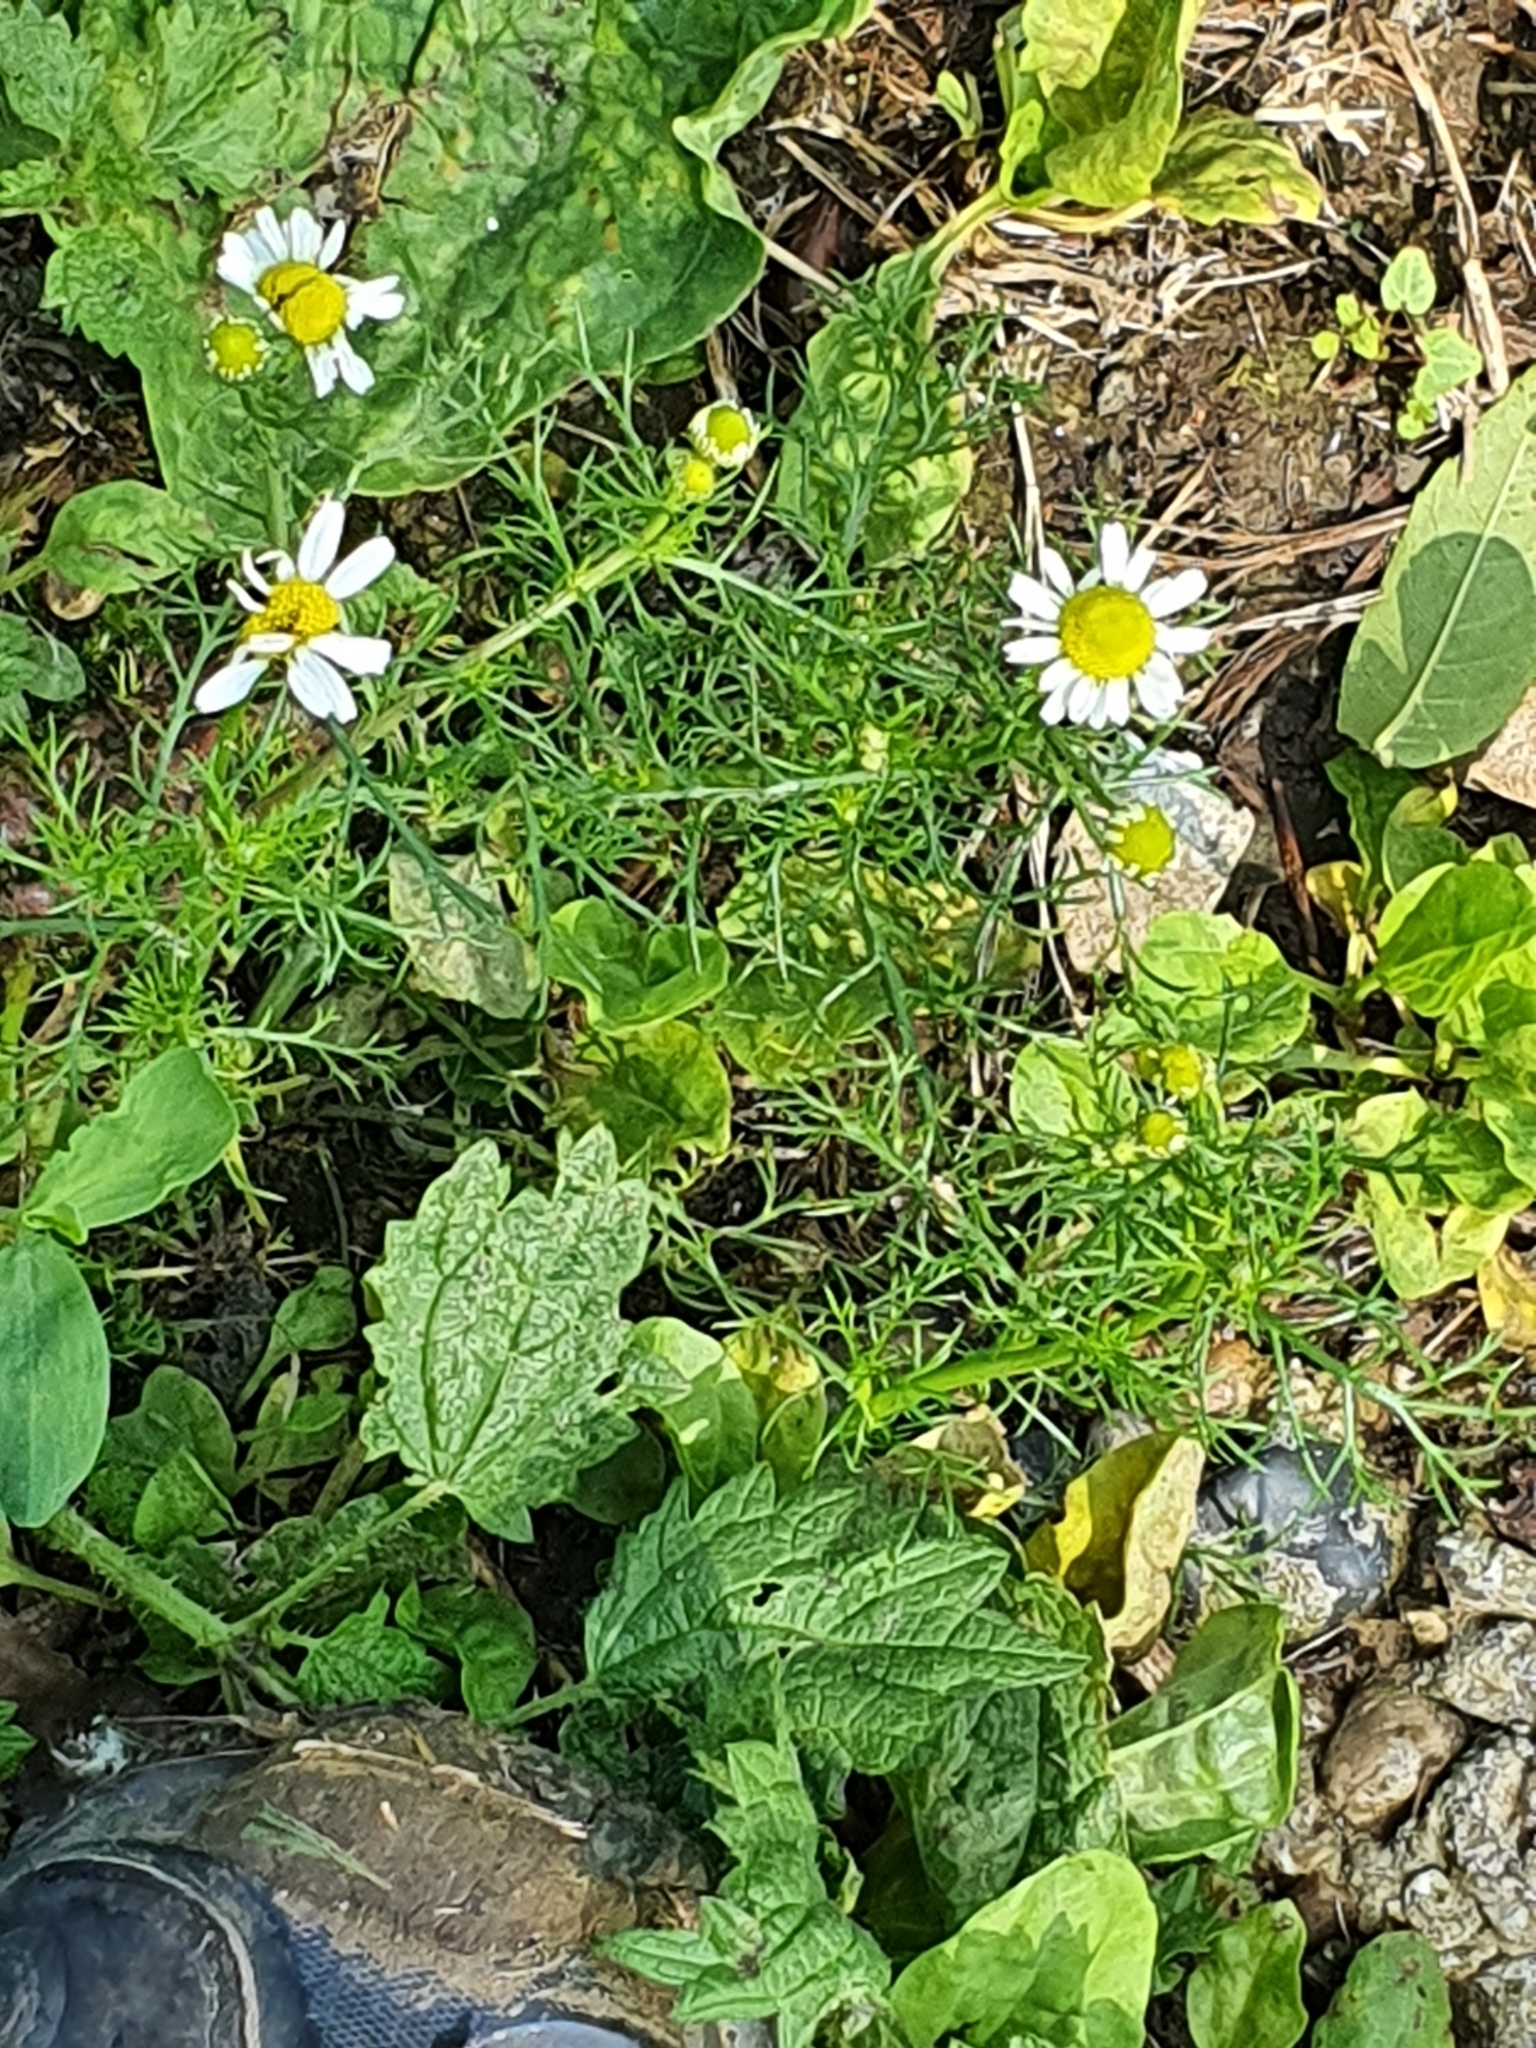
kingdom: Plantae
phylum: Tracheophyta
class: Magnoliopsida
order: Asterales
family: Asteraceae
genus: Tripleurospermum
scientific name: Tripleurospermum inodorum
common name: Scentless mayweed
